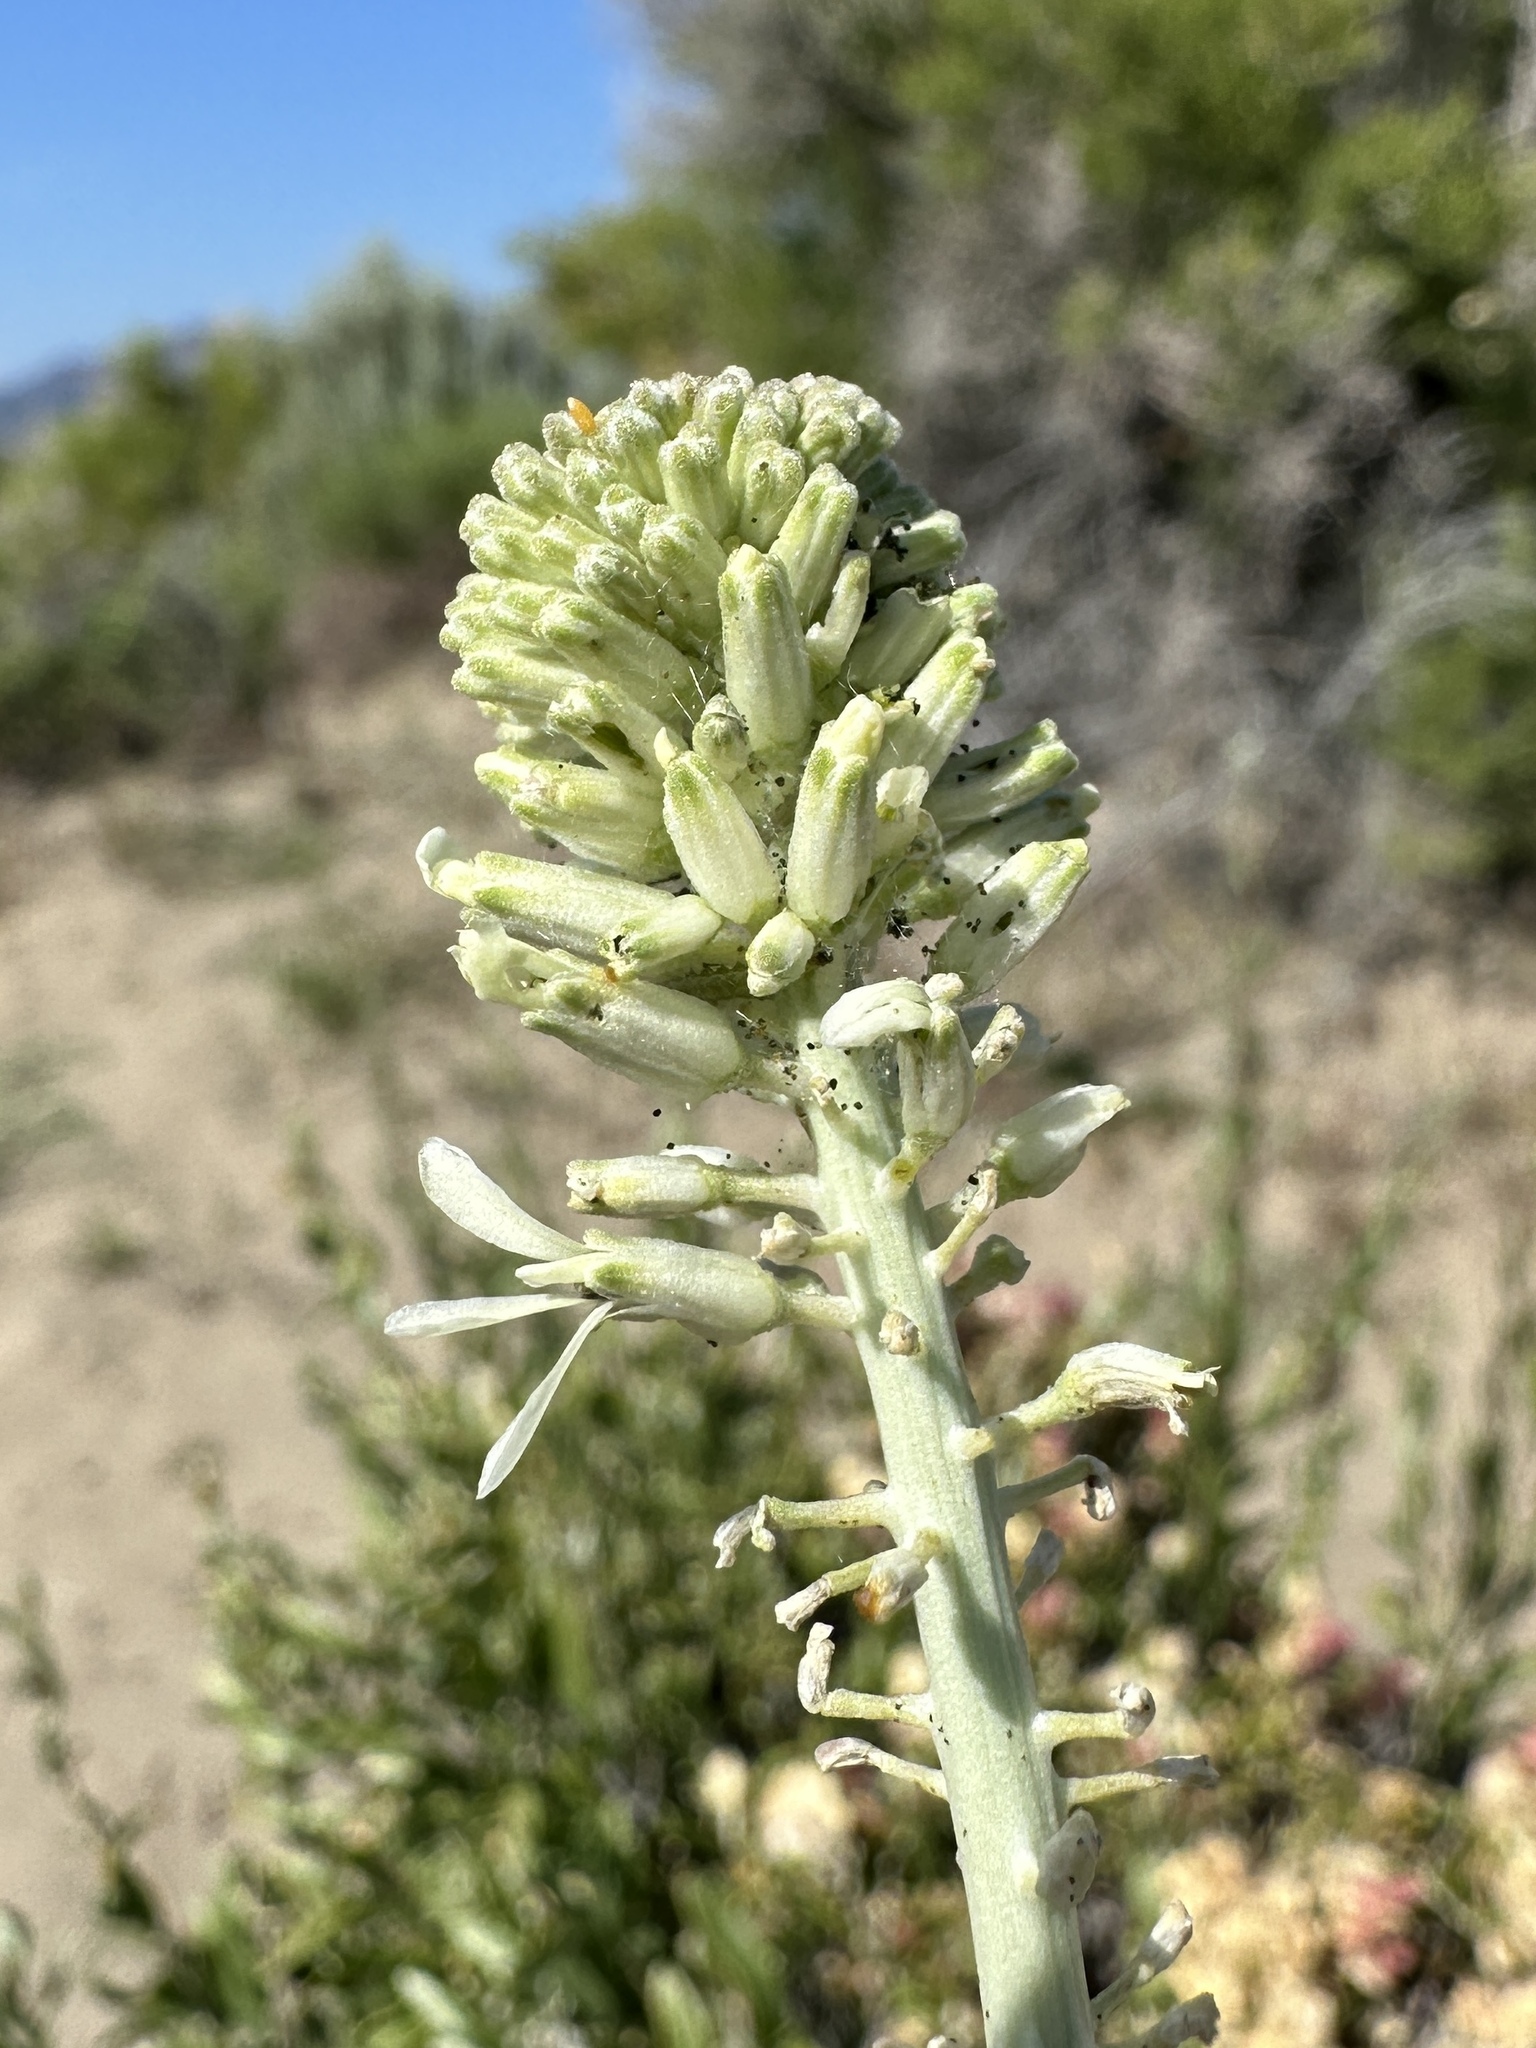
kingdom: Plantae
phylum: Tracheophyta
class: Magnoliopsida
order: Brassicales
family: Brassicaceae
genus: Thelypodium
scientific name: Thelypodium milleflorum
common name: Many-flowered thelypody
